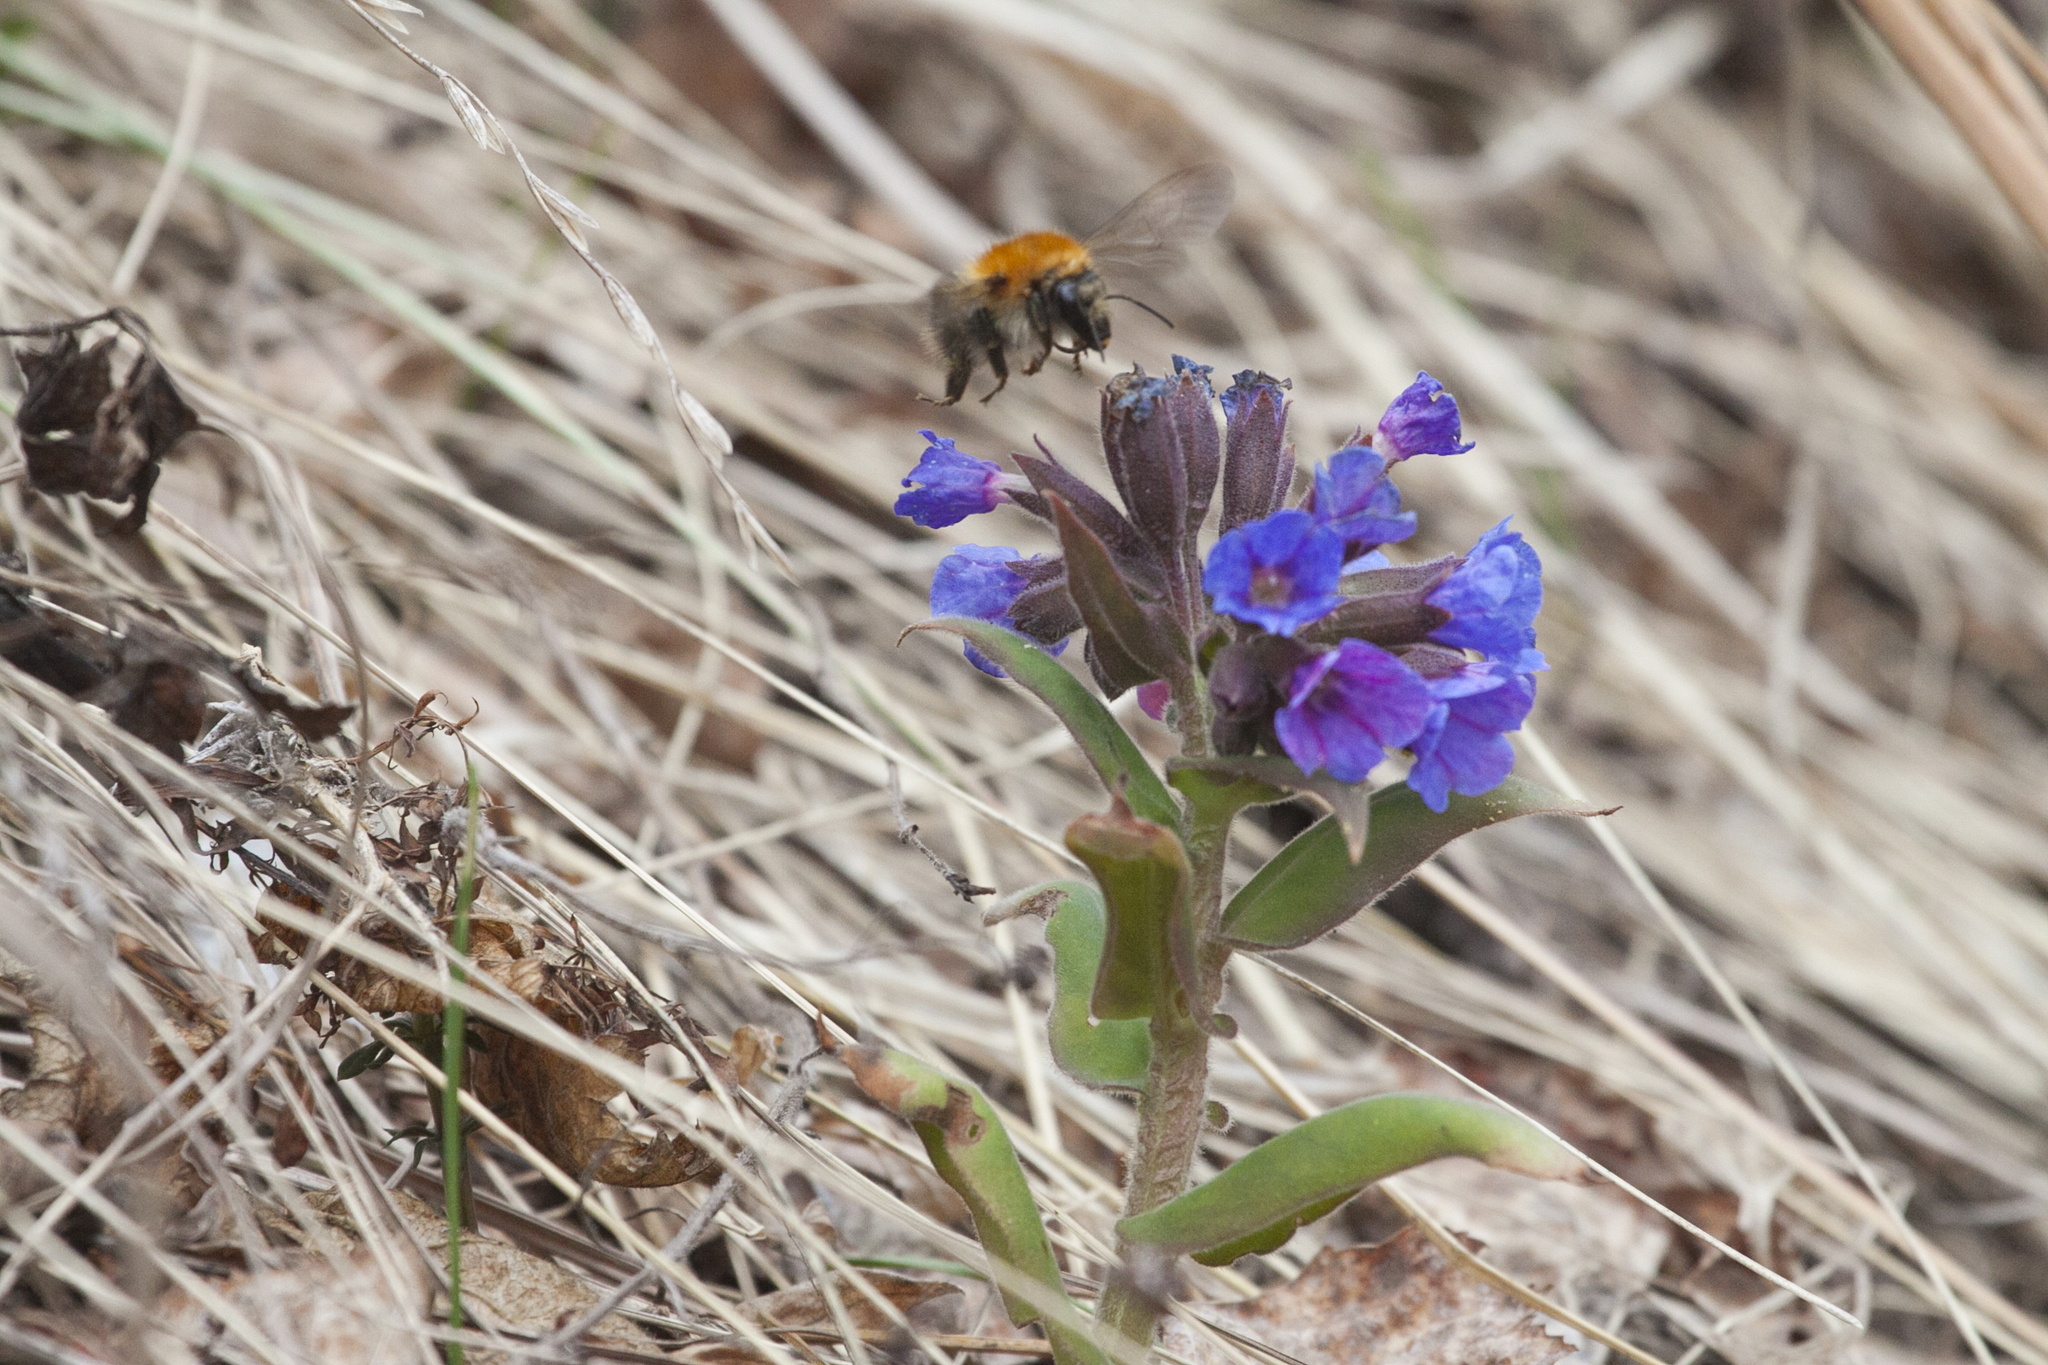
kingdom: Animalia
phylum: Arthropoda
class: Insecta
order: Hymenoptera
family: Apidae
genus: Bombus
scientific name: Bombus pascuorum
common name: Common carder bee
